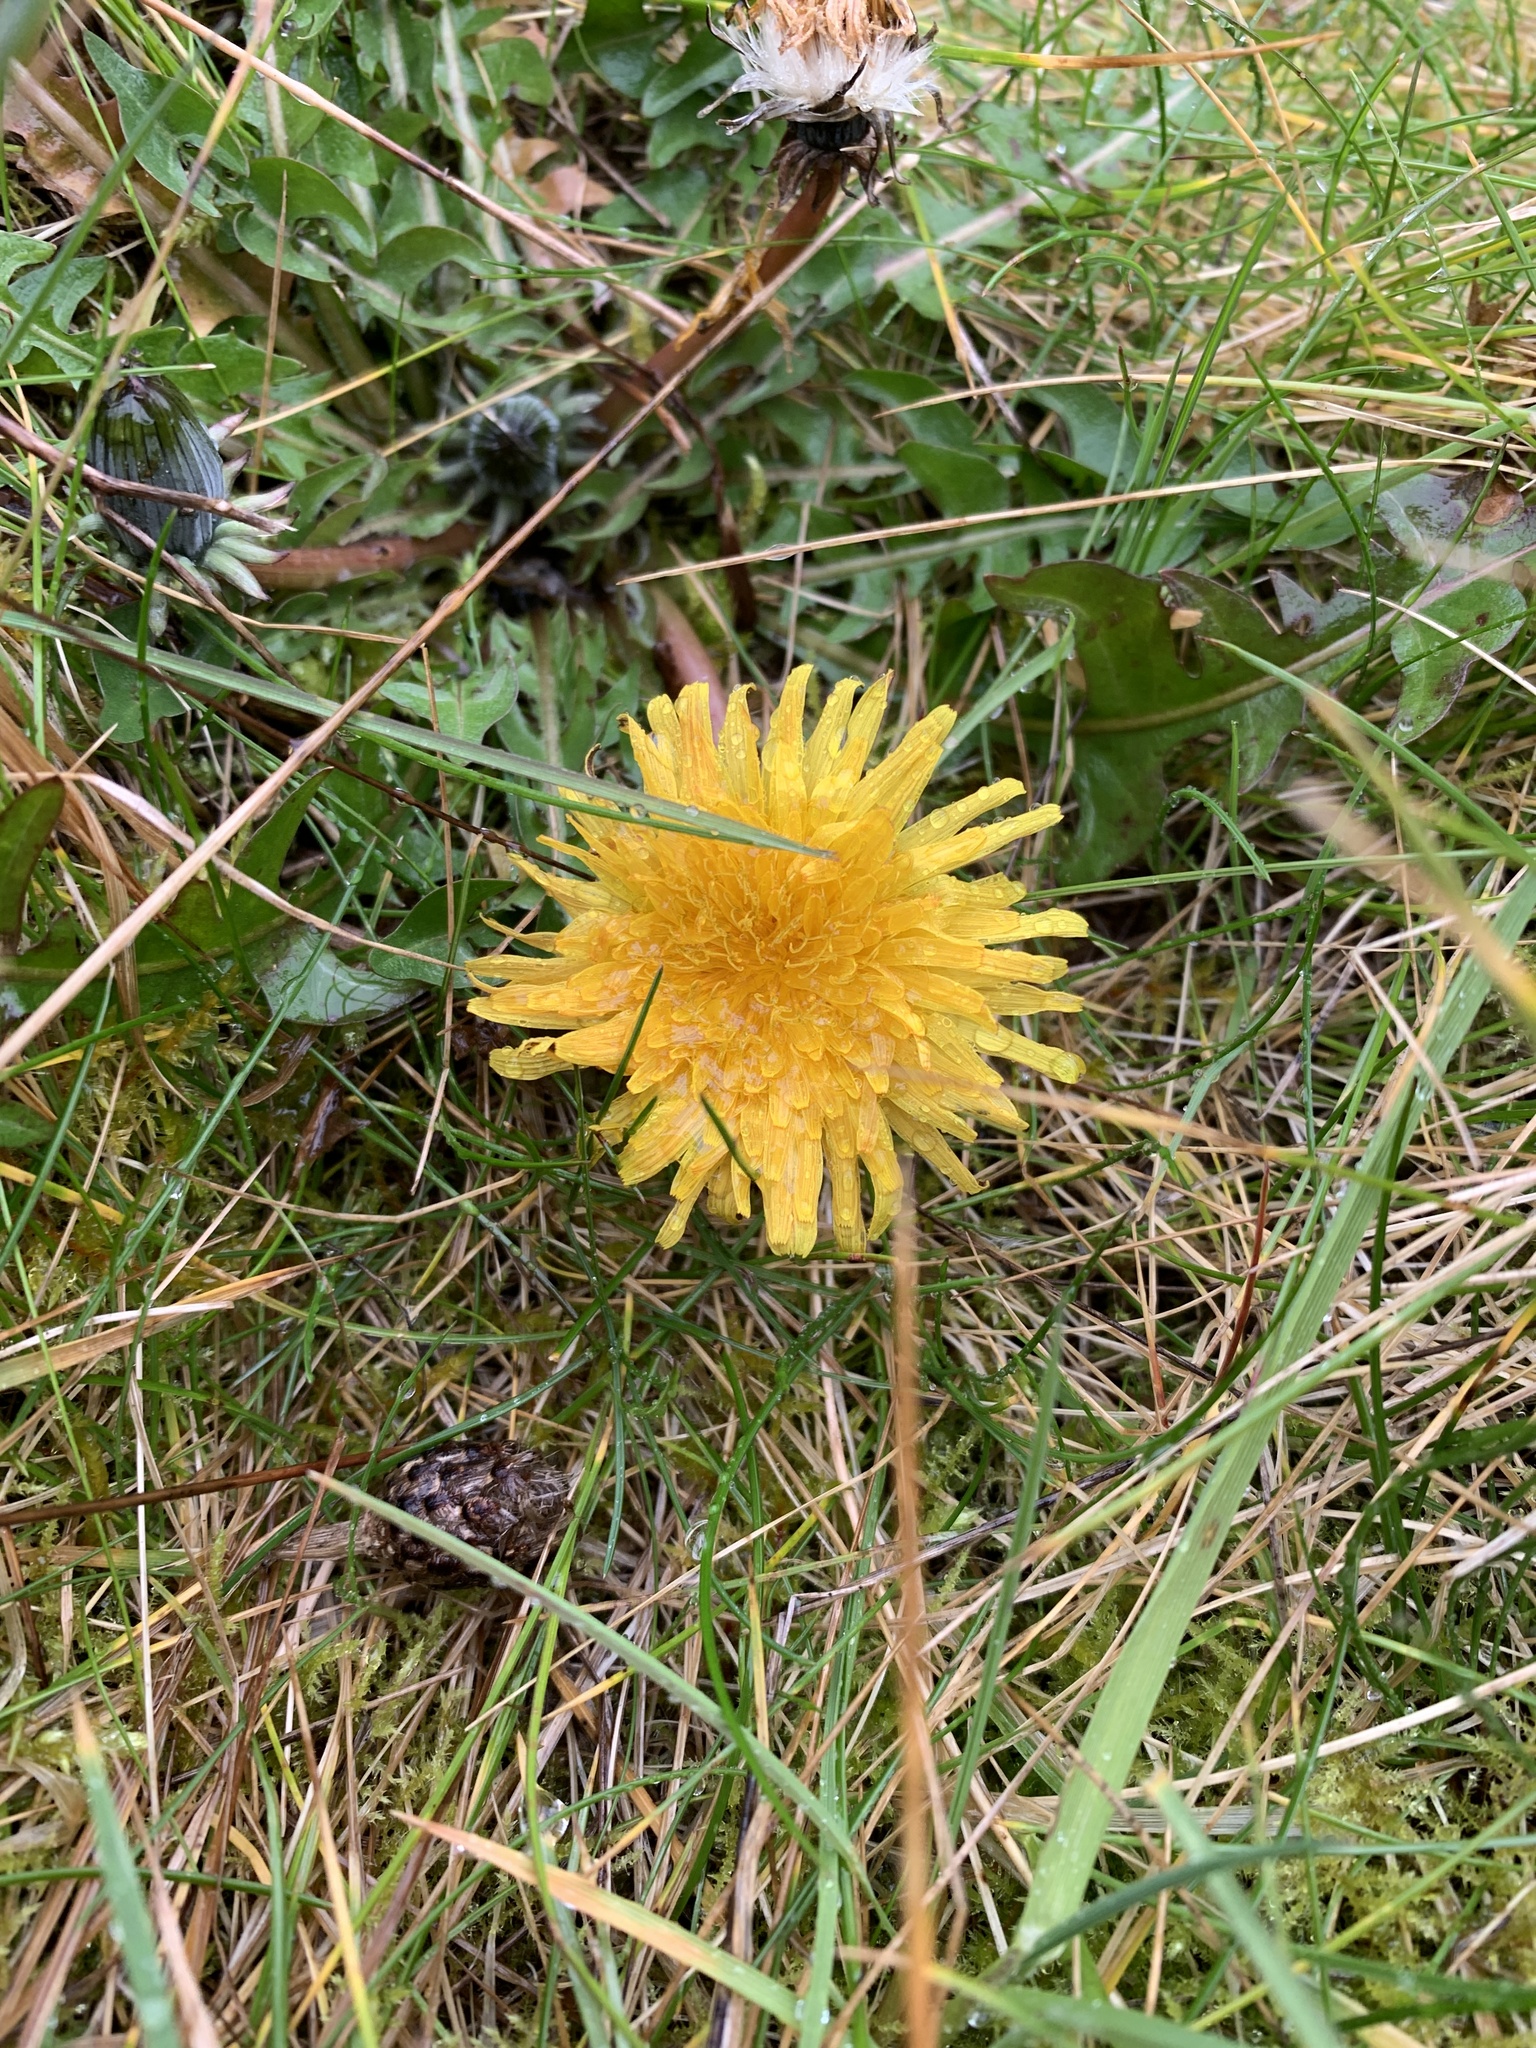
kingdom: Plantae
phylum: Tracheophyta
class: Magnoliopsida
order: Asterales
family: Asteraceae
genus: Taraxacum
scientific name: Taraxacum officinale
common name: Common dandelion
